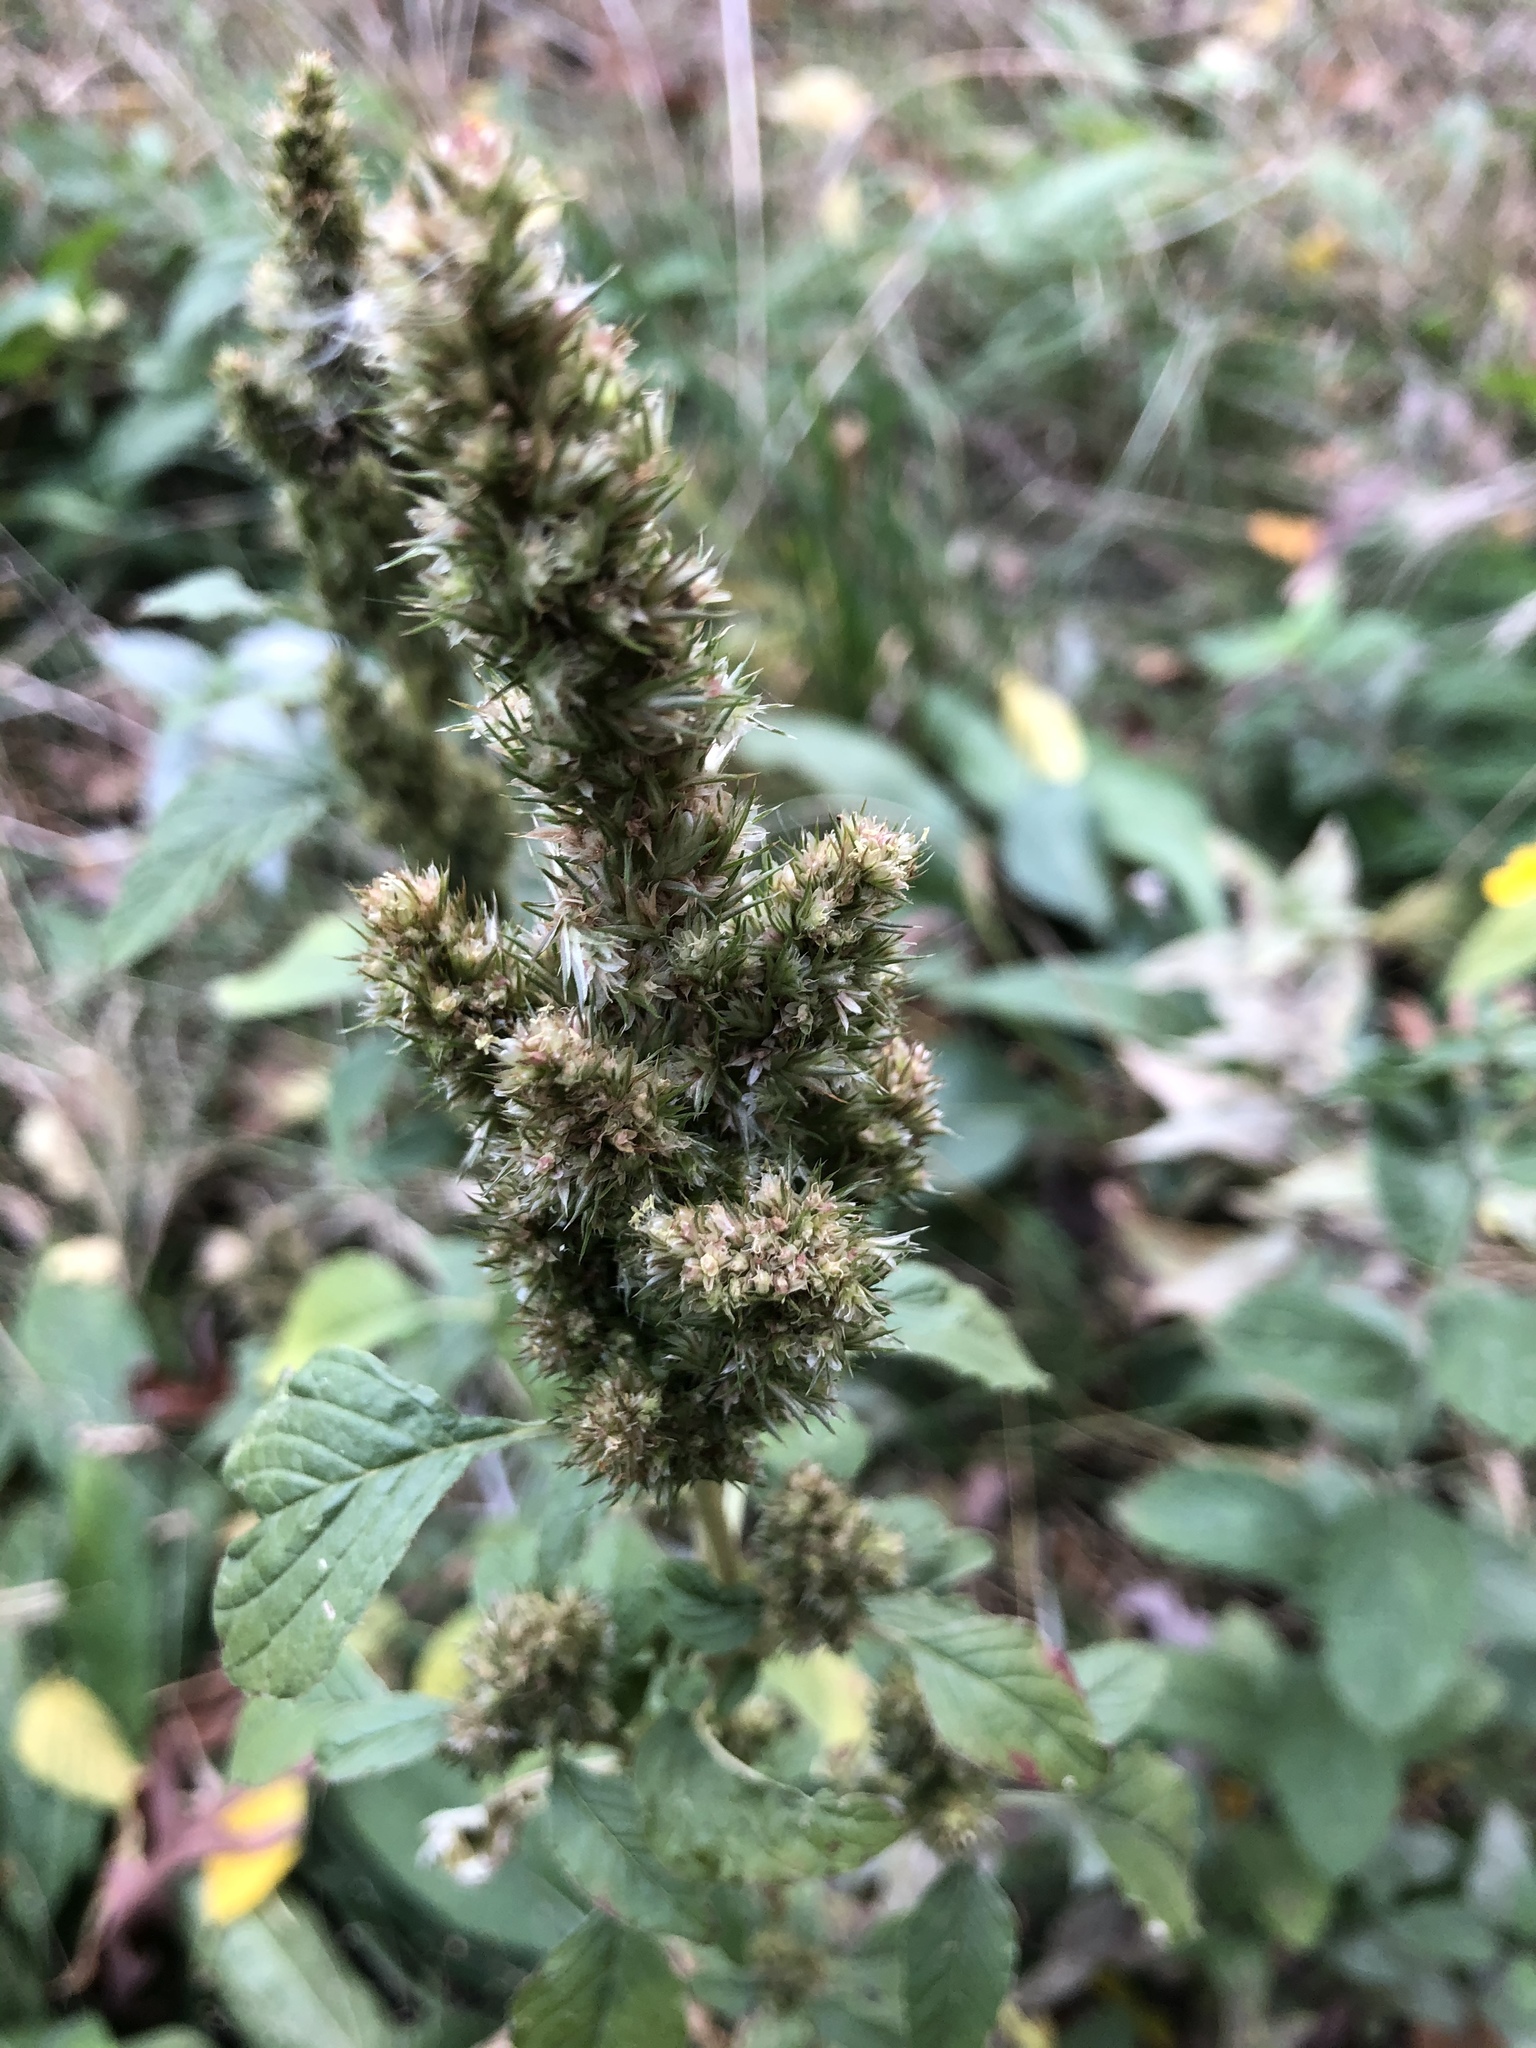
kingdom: Plantae
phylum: Tracheophyta
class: Magnoliopsida
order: Caryophyllales
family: Amaranthaceae
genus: Amaranthus
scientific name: Amaranthus retroflexus
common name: Redroot amaranth
